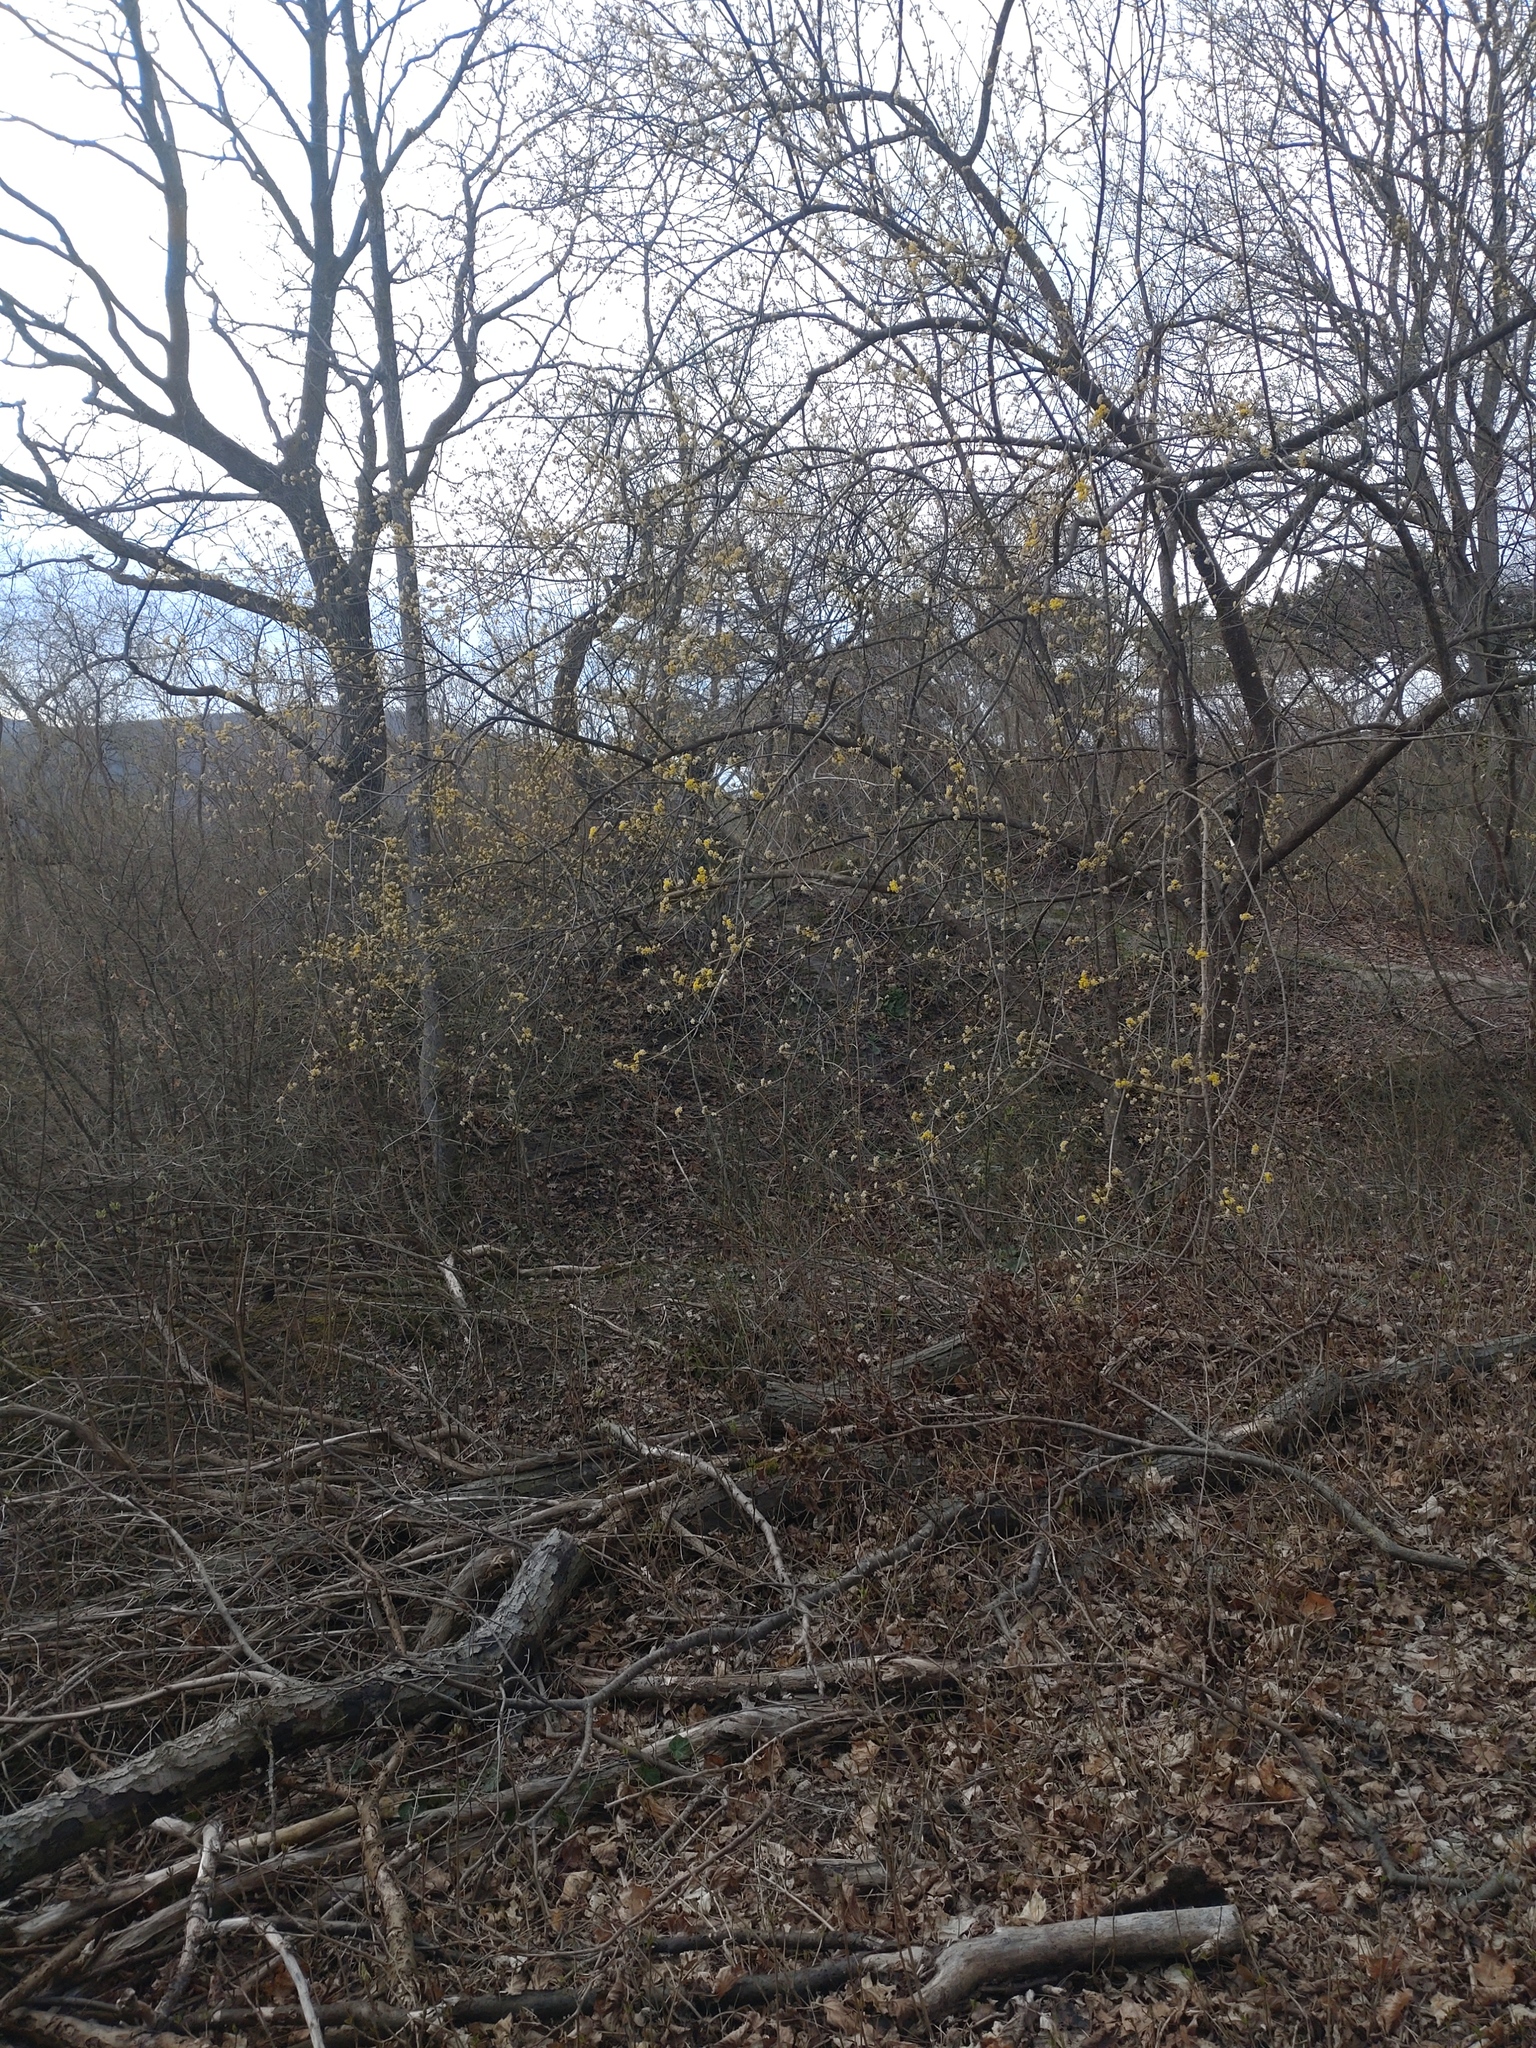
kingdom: Plantae
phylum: Tracheophyta
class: Magnoliopsida
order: Cornales
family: Cornaceae
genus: Cornus
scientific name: Cornus mas
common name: Cornelian-cherry
